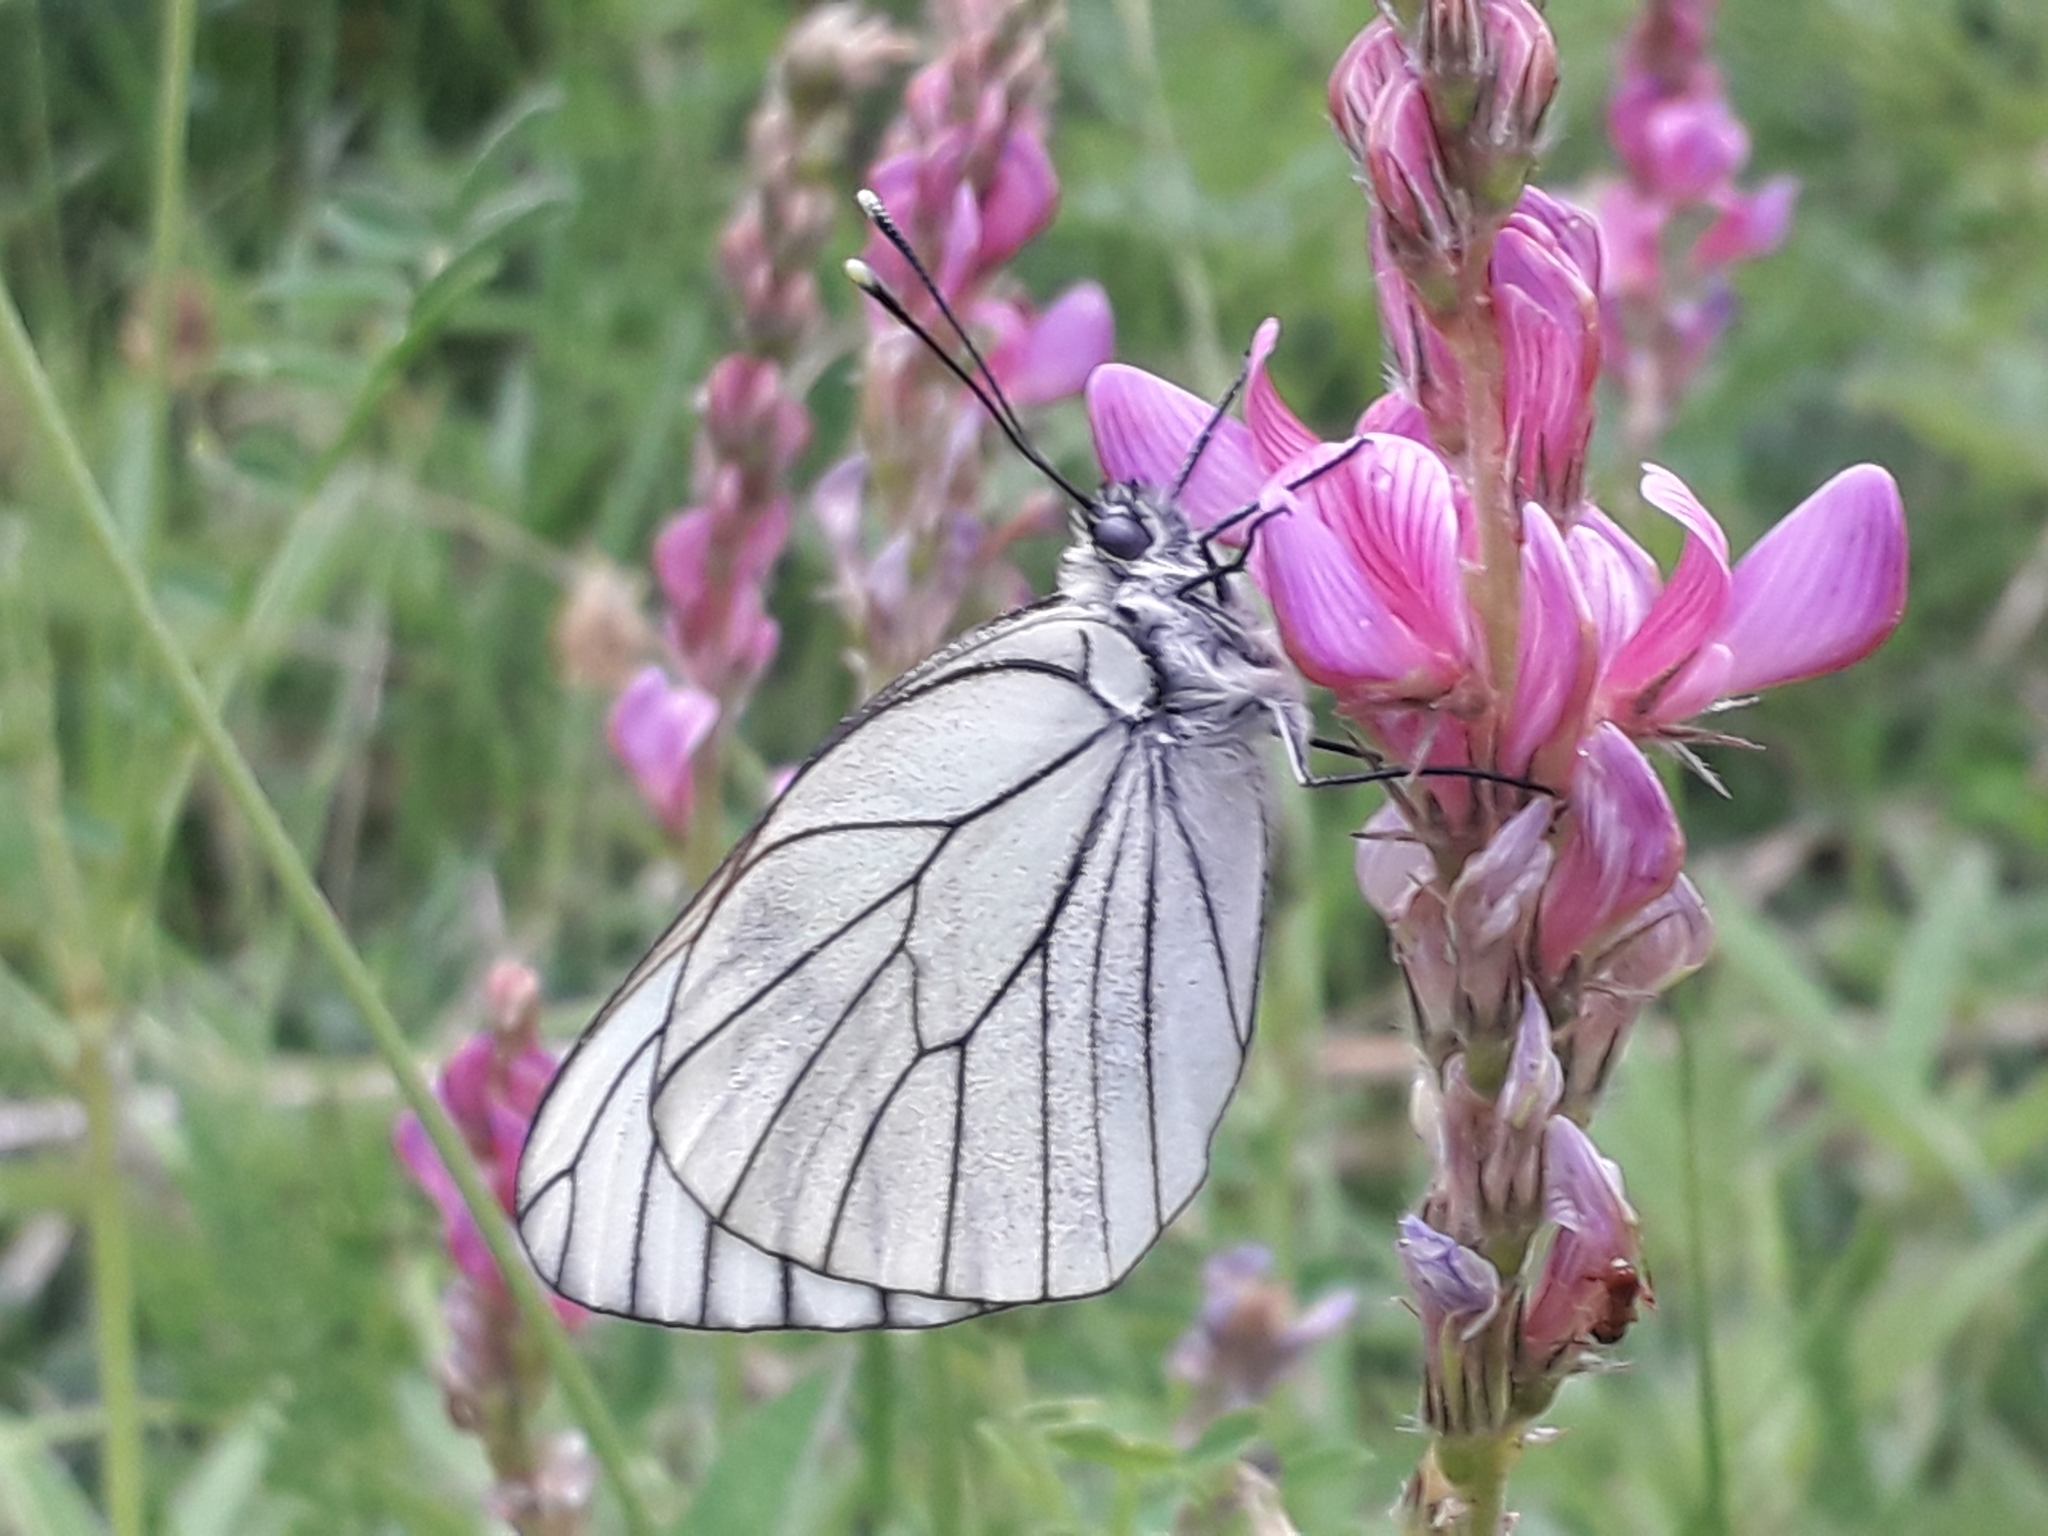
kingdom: Animalia
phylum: Arthropoda
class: Insecta
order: Lepidoptera
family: Pieridae
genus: Aporia
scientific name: Aporia crataegi
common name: Black-veined white
